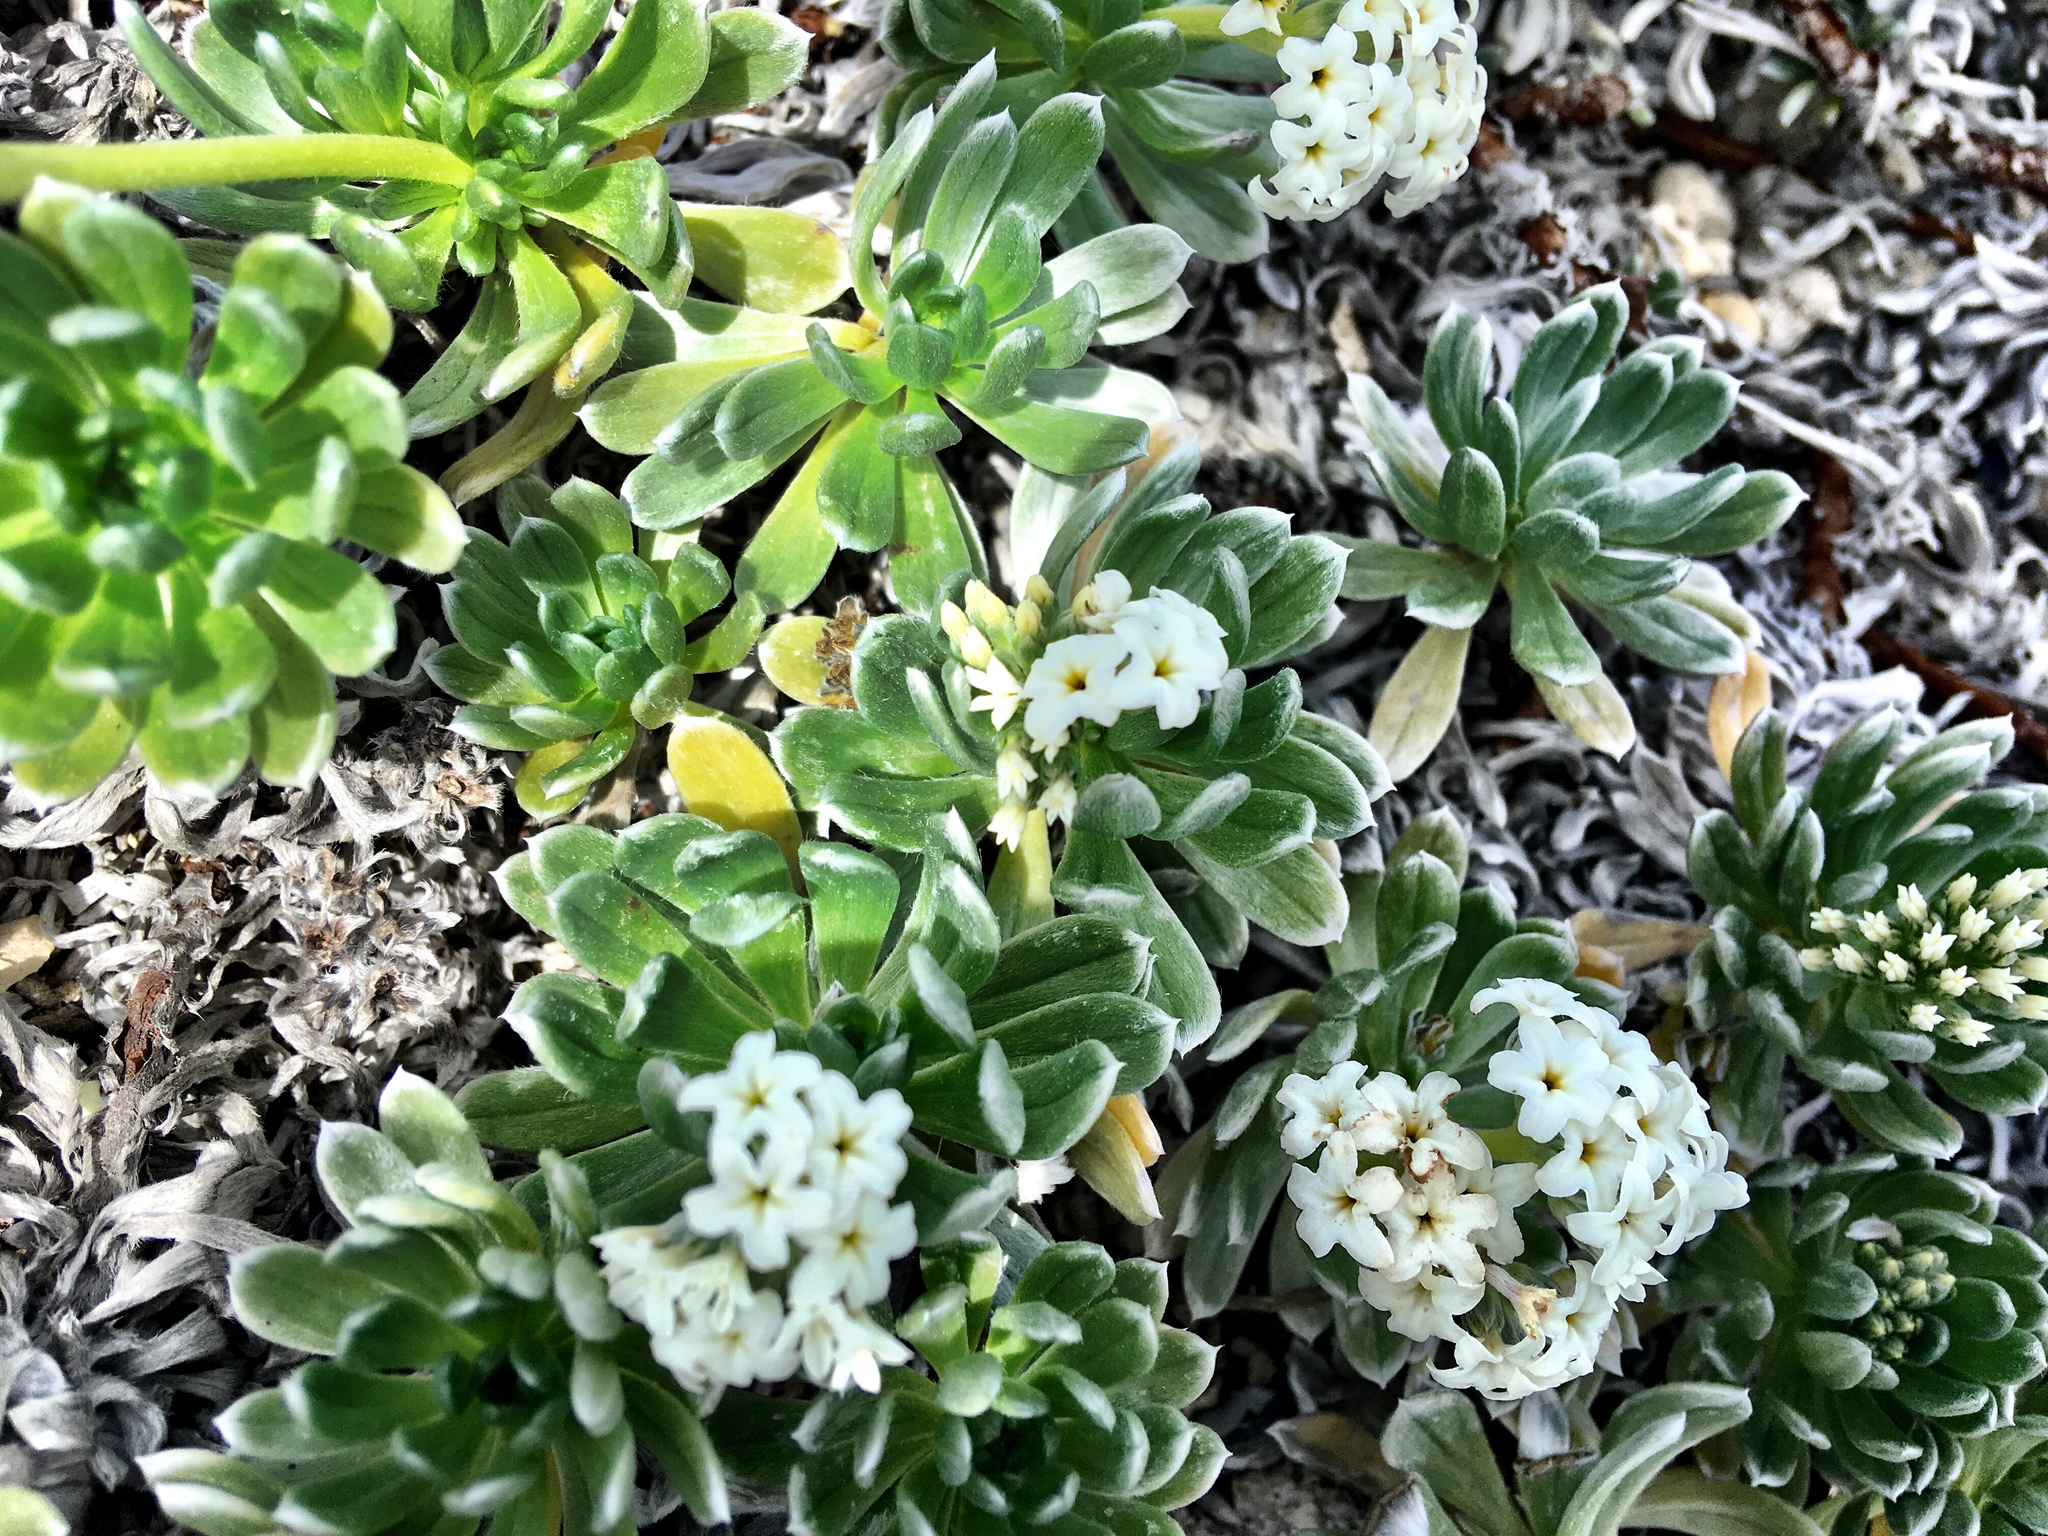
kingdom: Plantae
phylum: Tracheophyta
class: Magnoliopsida
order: Boraginales
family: Heliotropiaceae
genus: Heliotropium
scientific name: Heliotropium anomalum
